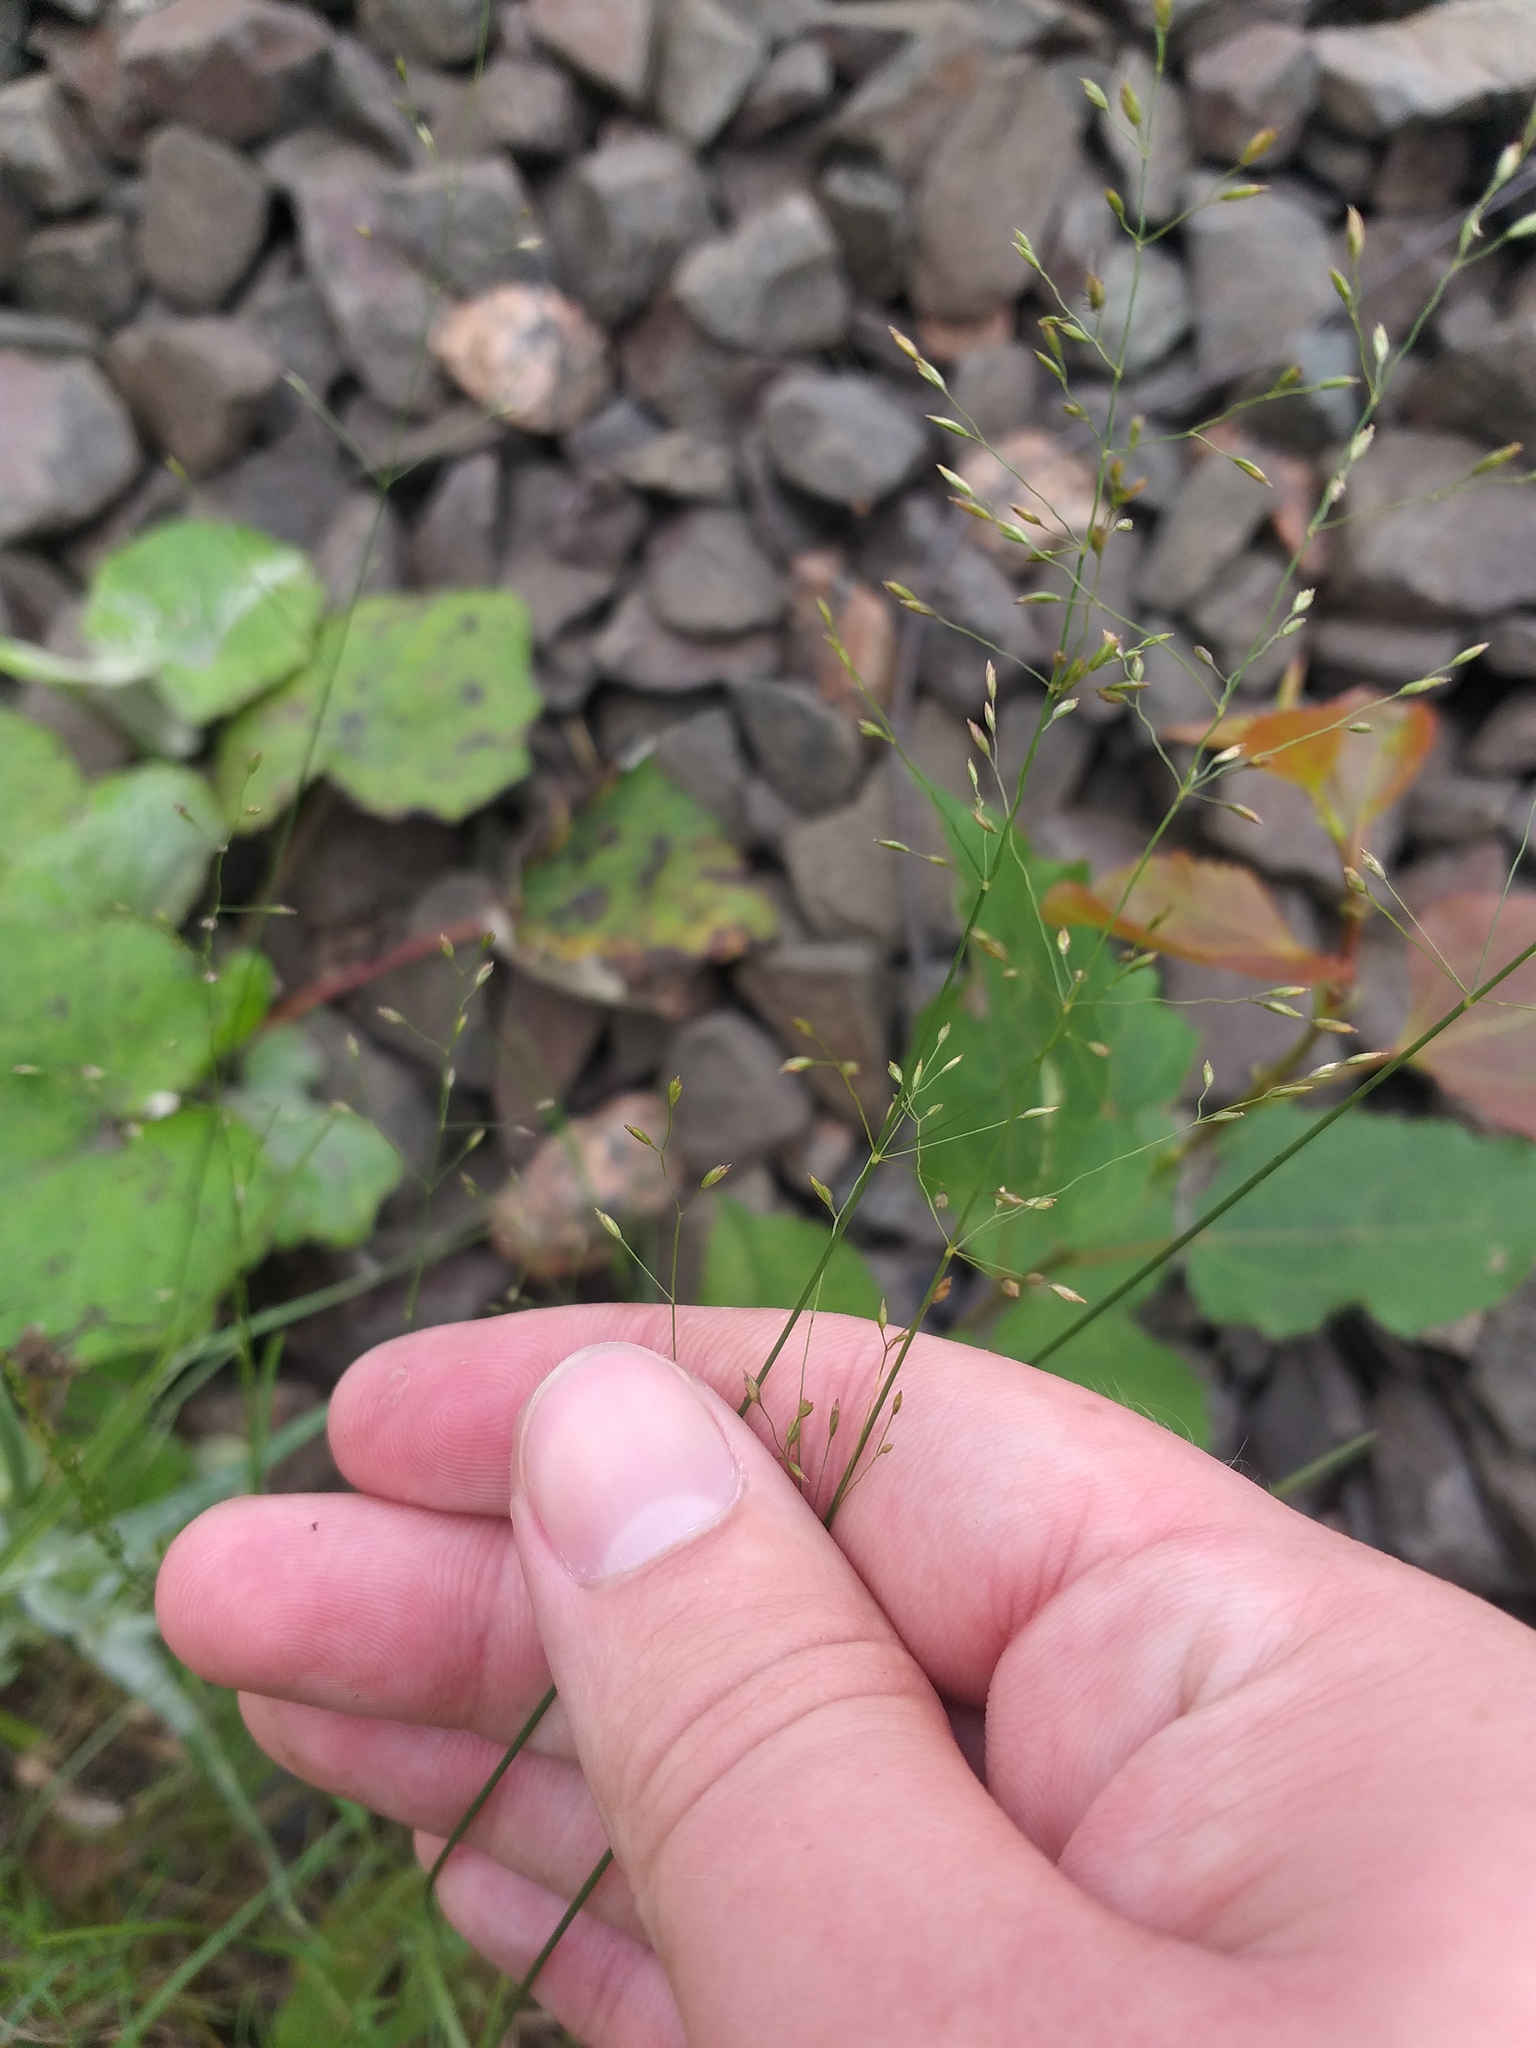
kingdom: Plantae
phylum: Tracheophyta
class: Liliopsida
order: Poales
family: Poaceae
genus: Poa
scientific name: Poa palustris
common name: Swamp meadow-grass
